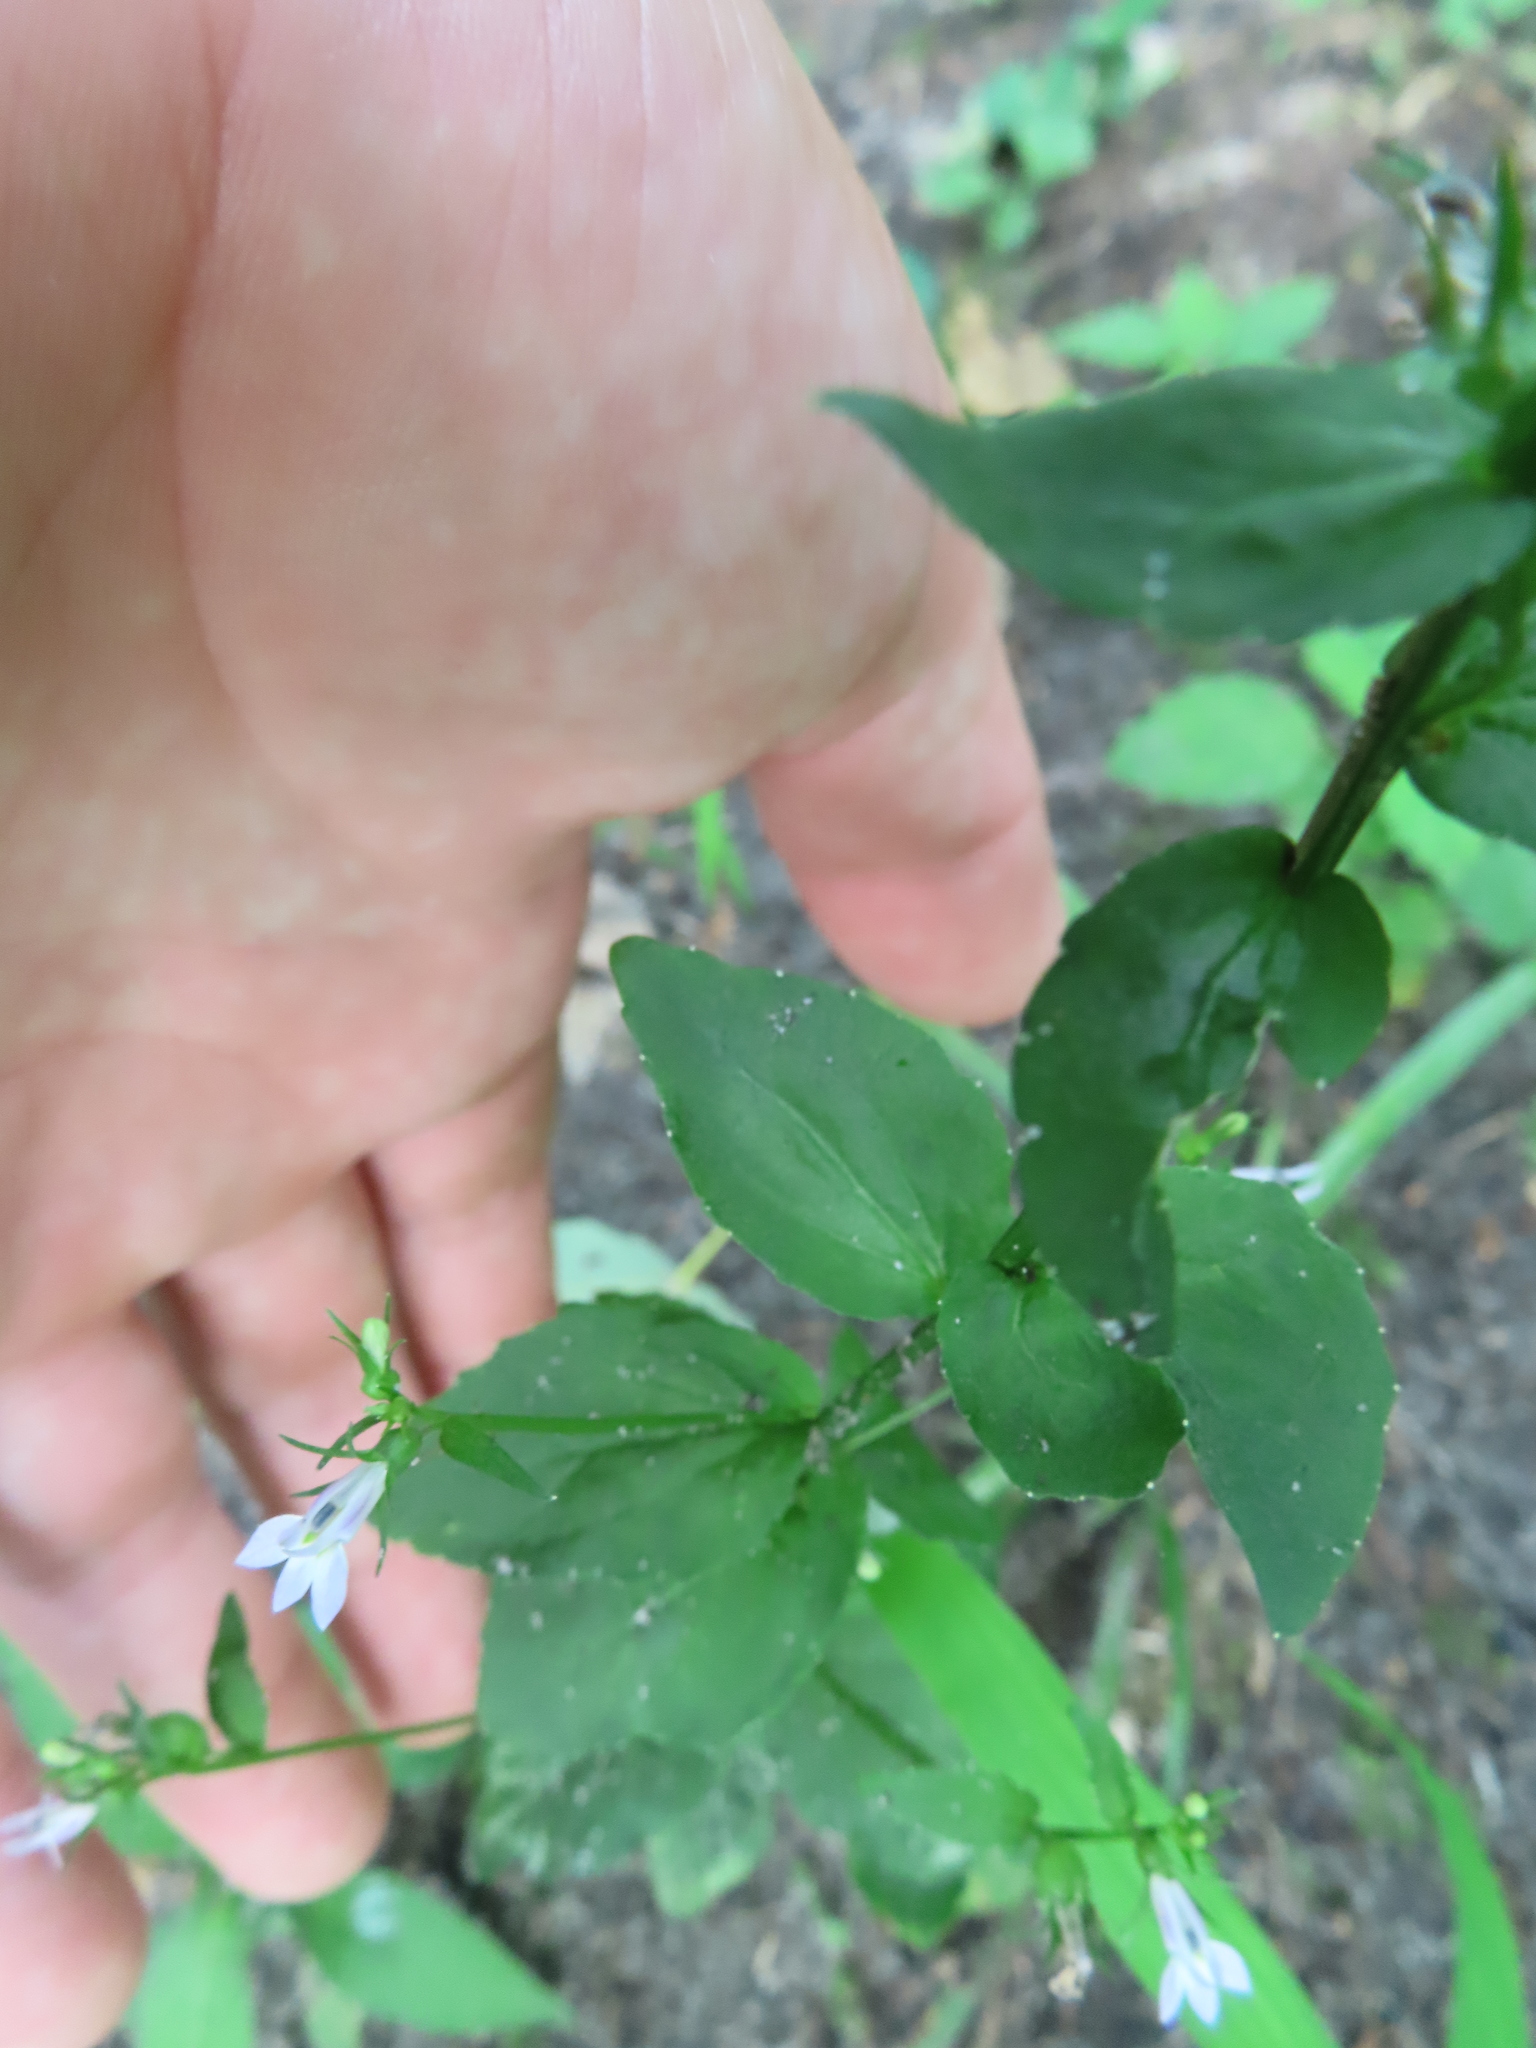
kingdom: Plantae
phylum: Tracheophyta
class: Magnoliopsida
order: Asterales
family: Campanulaceae
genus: Lobelia
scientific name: Lobelia inflata
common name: Indian tobacco
